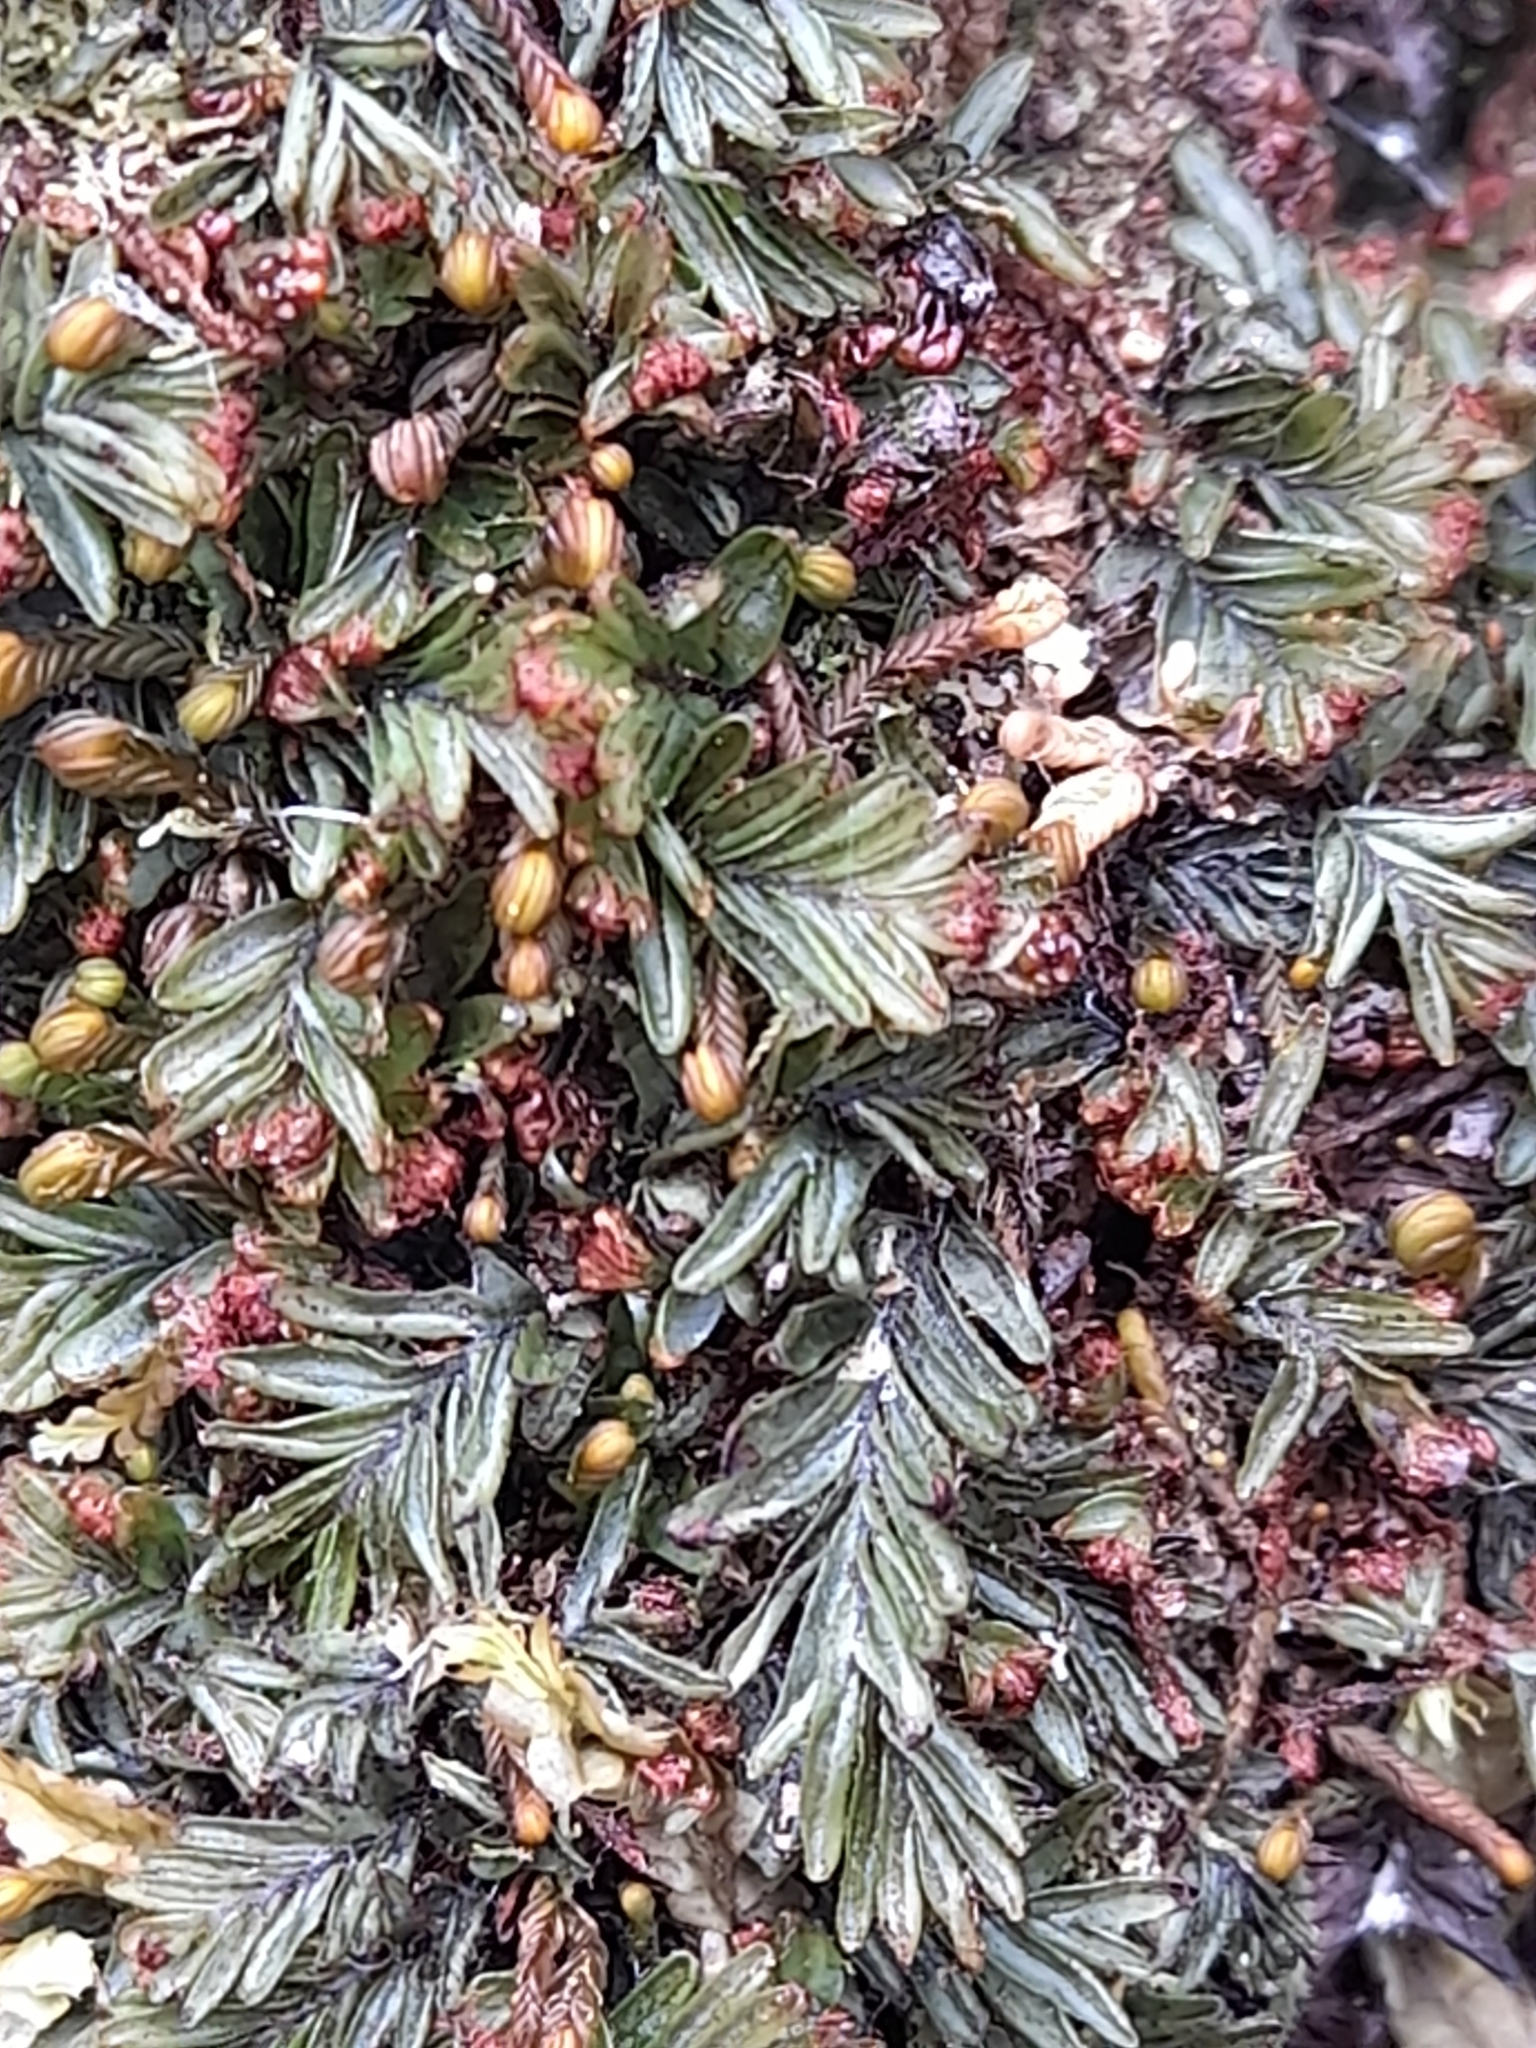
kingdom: Plantae
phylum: Tracheophyta
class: Polypodiopsida
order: Hymenophyllales
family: Hymenophyllaceae
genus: Hymenophyllum
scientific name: Hymenophyllum caespitosum
